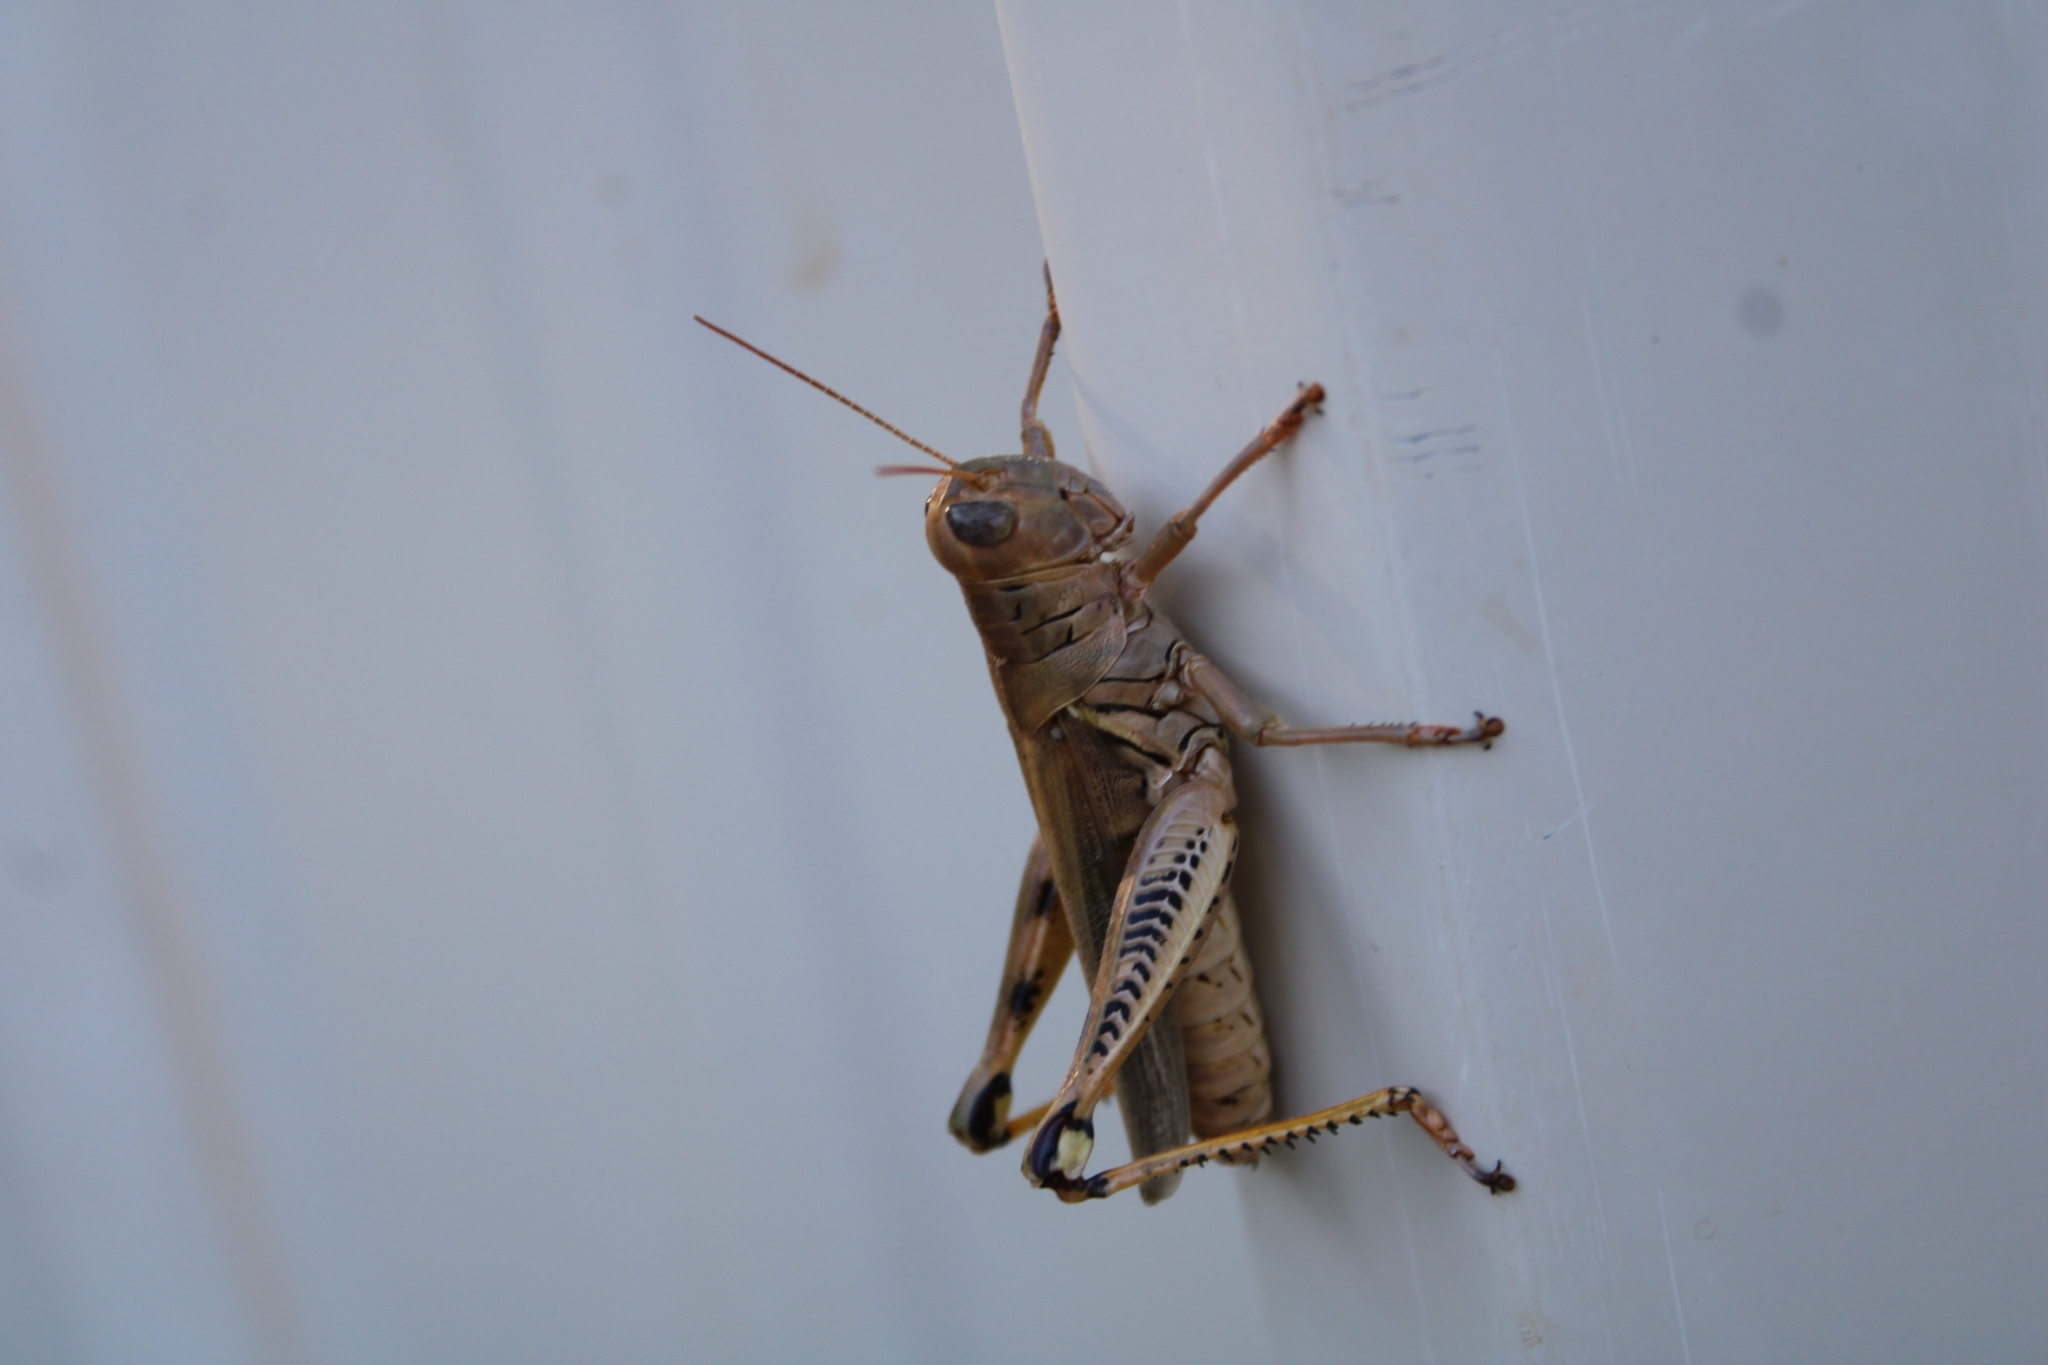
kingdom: Animalia
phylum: Arthropoda
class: Insecta
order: Orthoptera
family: Acrididae
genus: Melanoplus
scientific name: Melanoplus differentialis
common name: Differential grasshopper
